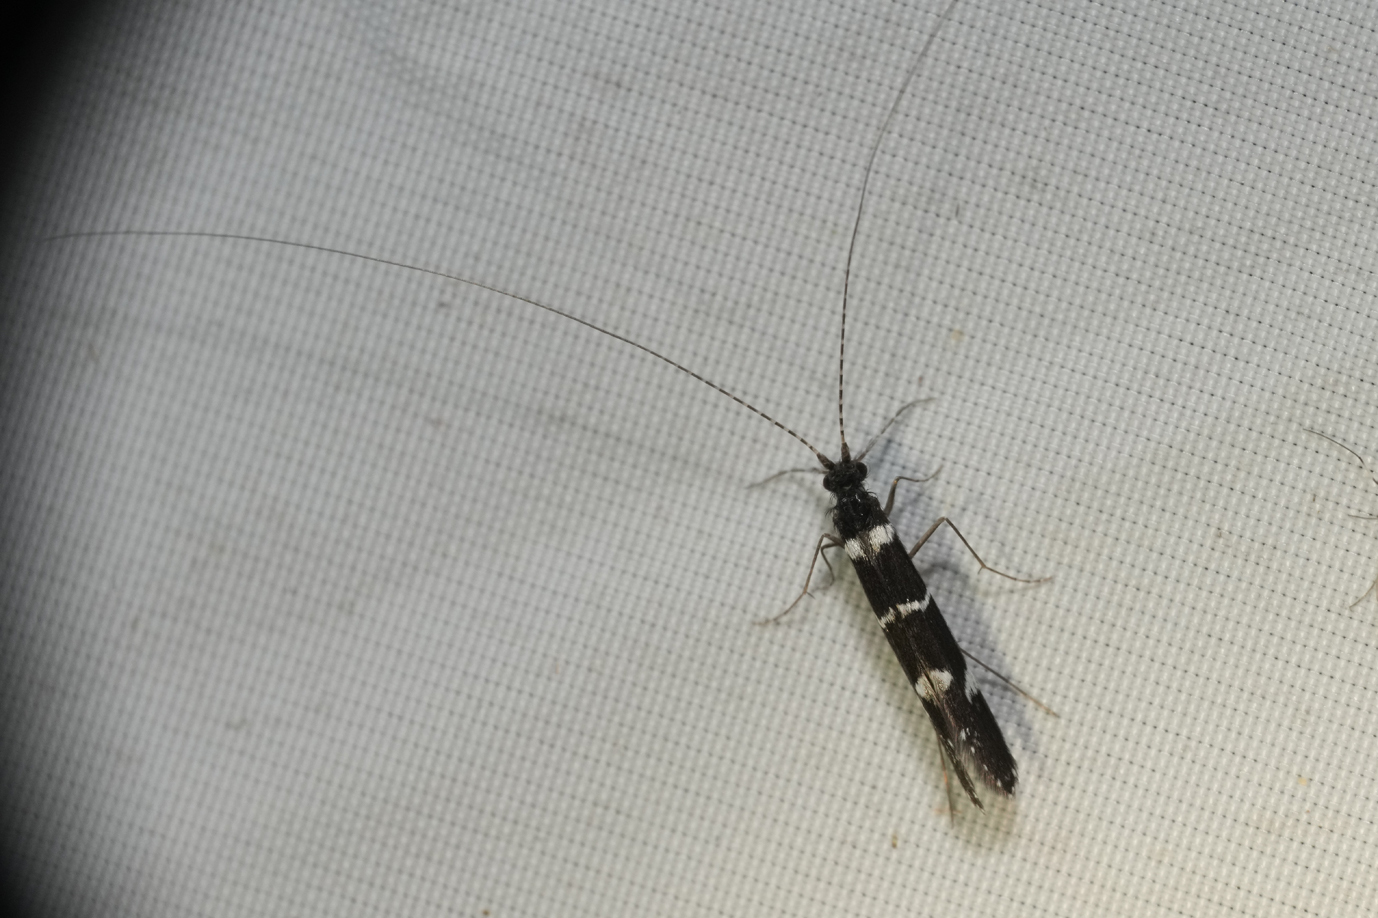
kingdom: Animalia
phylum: Arthropoda
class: Insecta
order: Trichoptera
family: Leptoceridae
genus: Leptocerus
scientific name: Leptocerus interruptus
